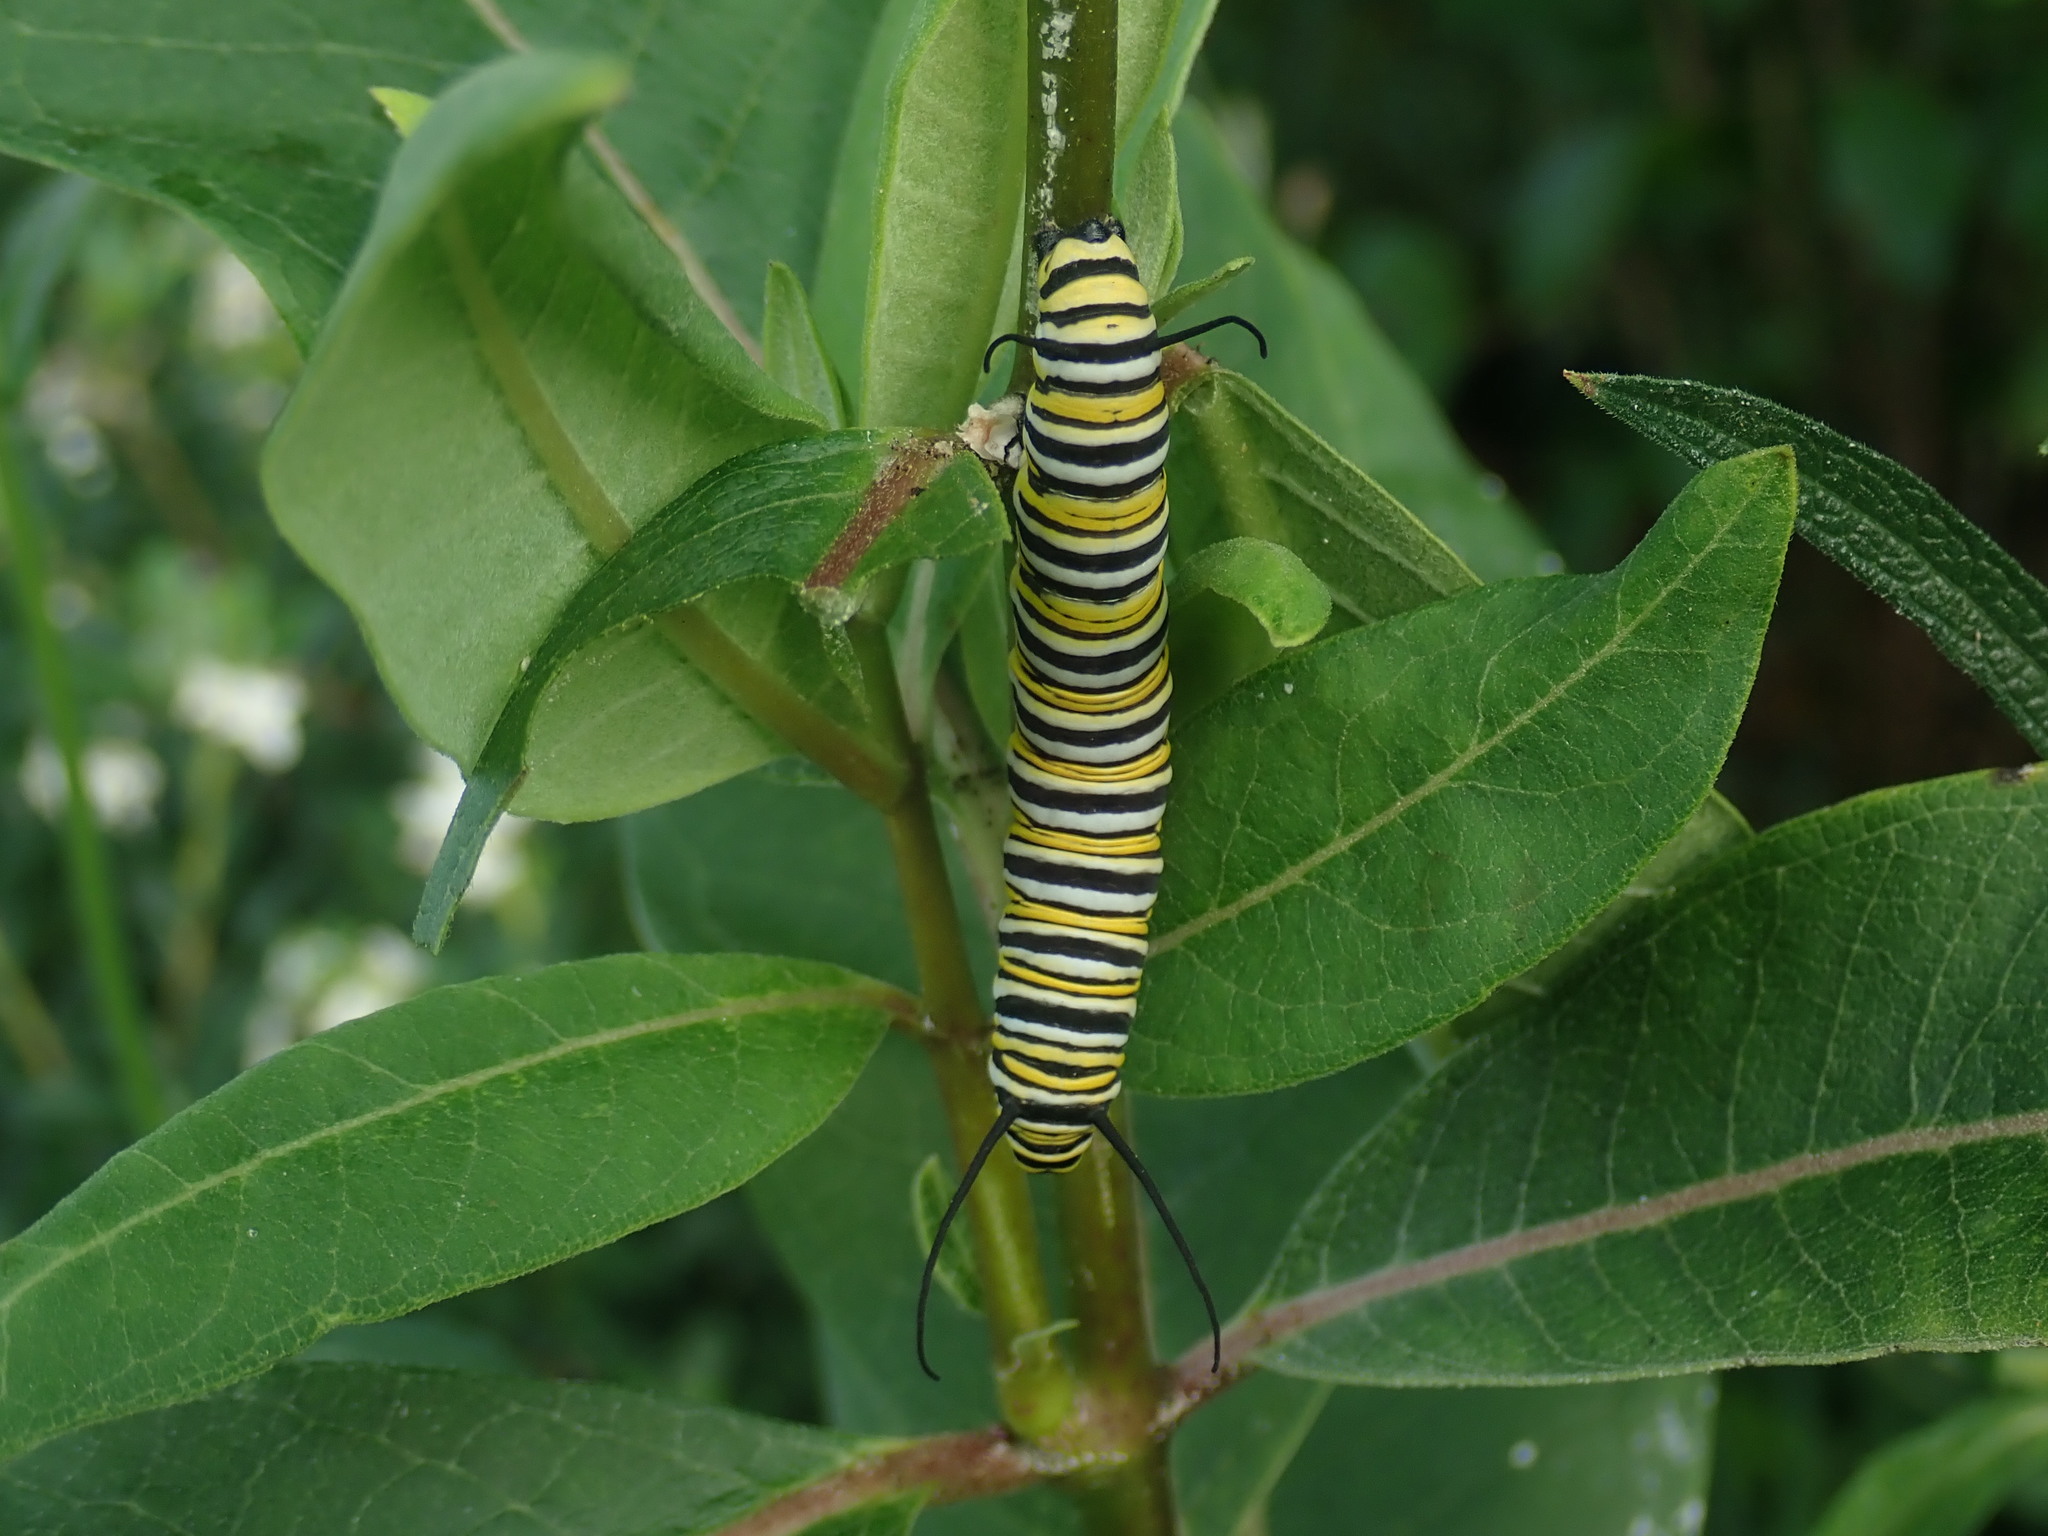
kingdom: Animalia
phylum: Arthropoda
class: Insecta
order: Lepidoptera
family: Nymphalidae
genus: Danaus
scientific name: Danaus plexippus
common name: Monarch
